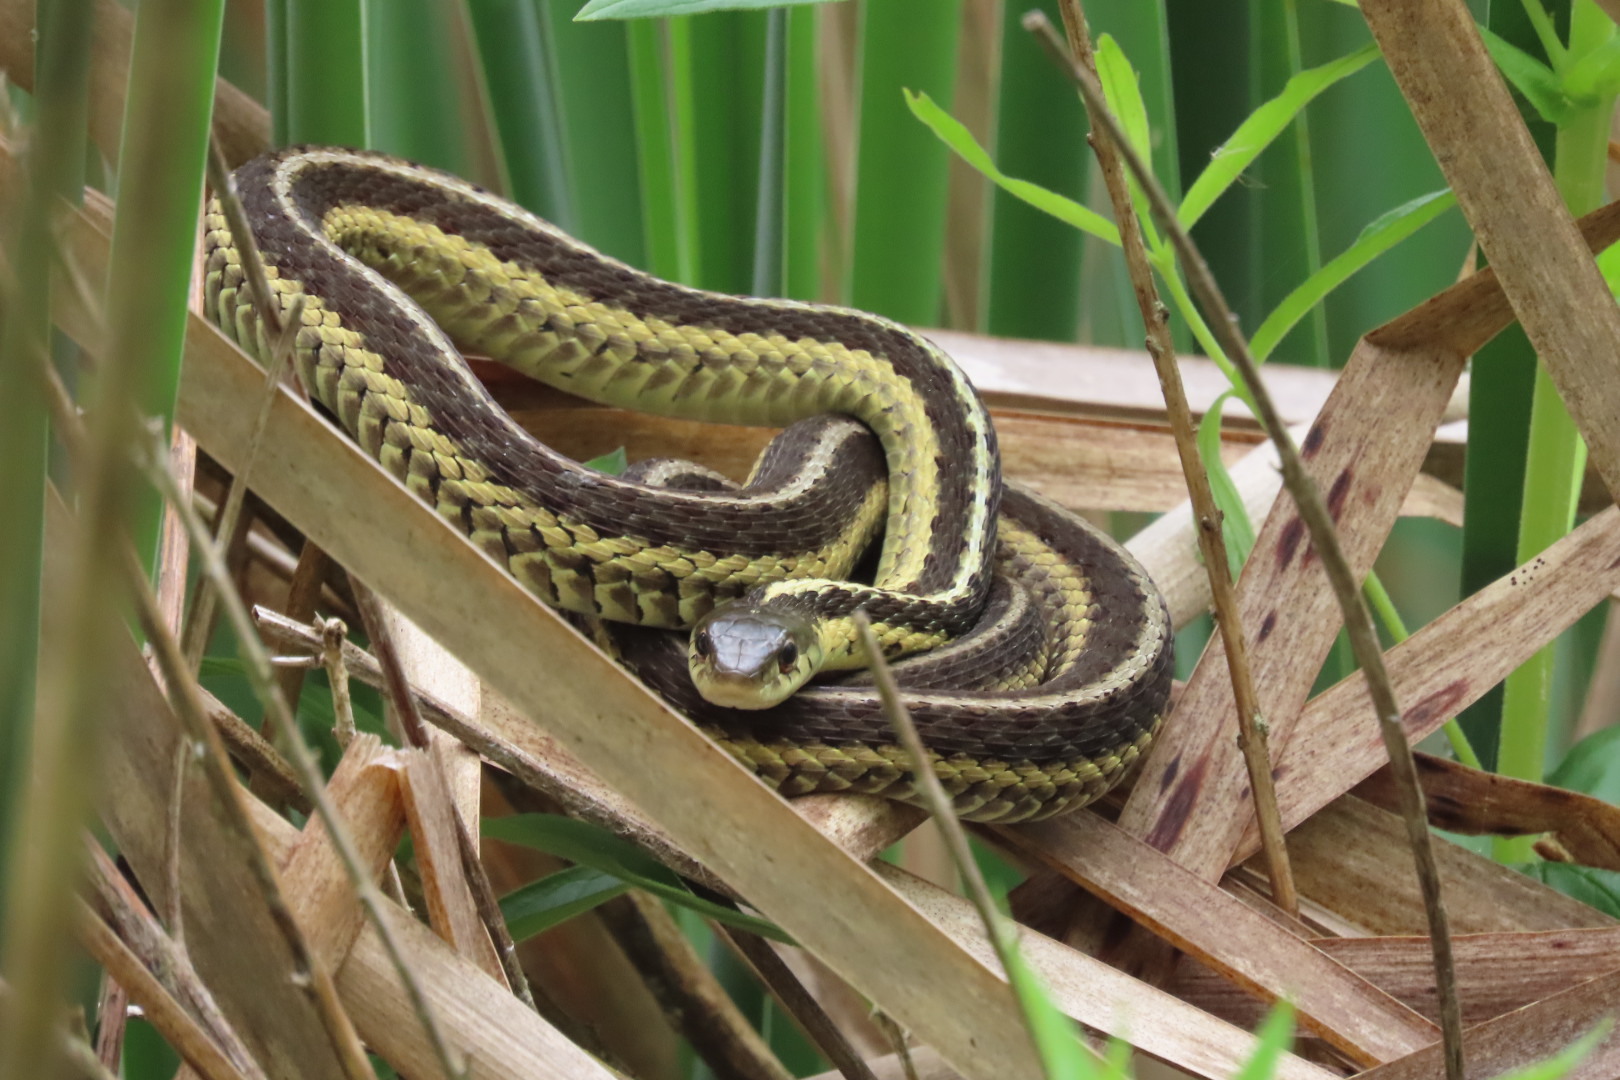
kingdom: Animalia
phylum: Chordata
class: Squamata
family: Colubridae
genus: Thamnophis
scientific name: Thamnophis sirtalis
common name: Common garter snake
